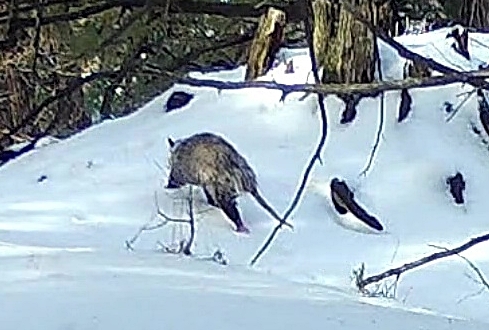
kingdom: Animalia
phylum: Chordata
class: Mammalia
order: Didelphimorphia
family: Didelphidae
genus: Didelphis
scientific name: Didelphis virginiana
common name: Virginia opossum
